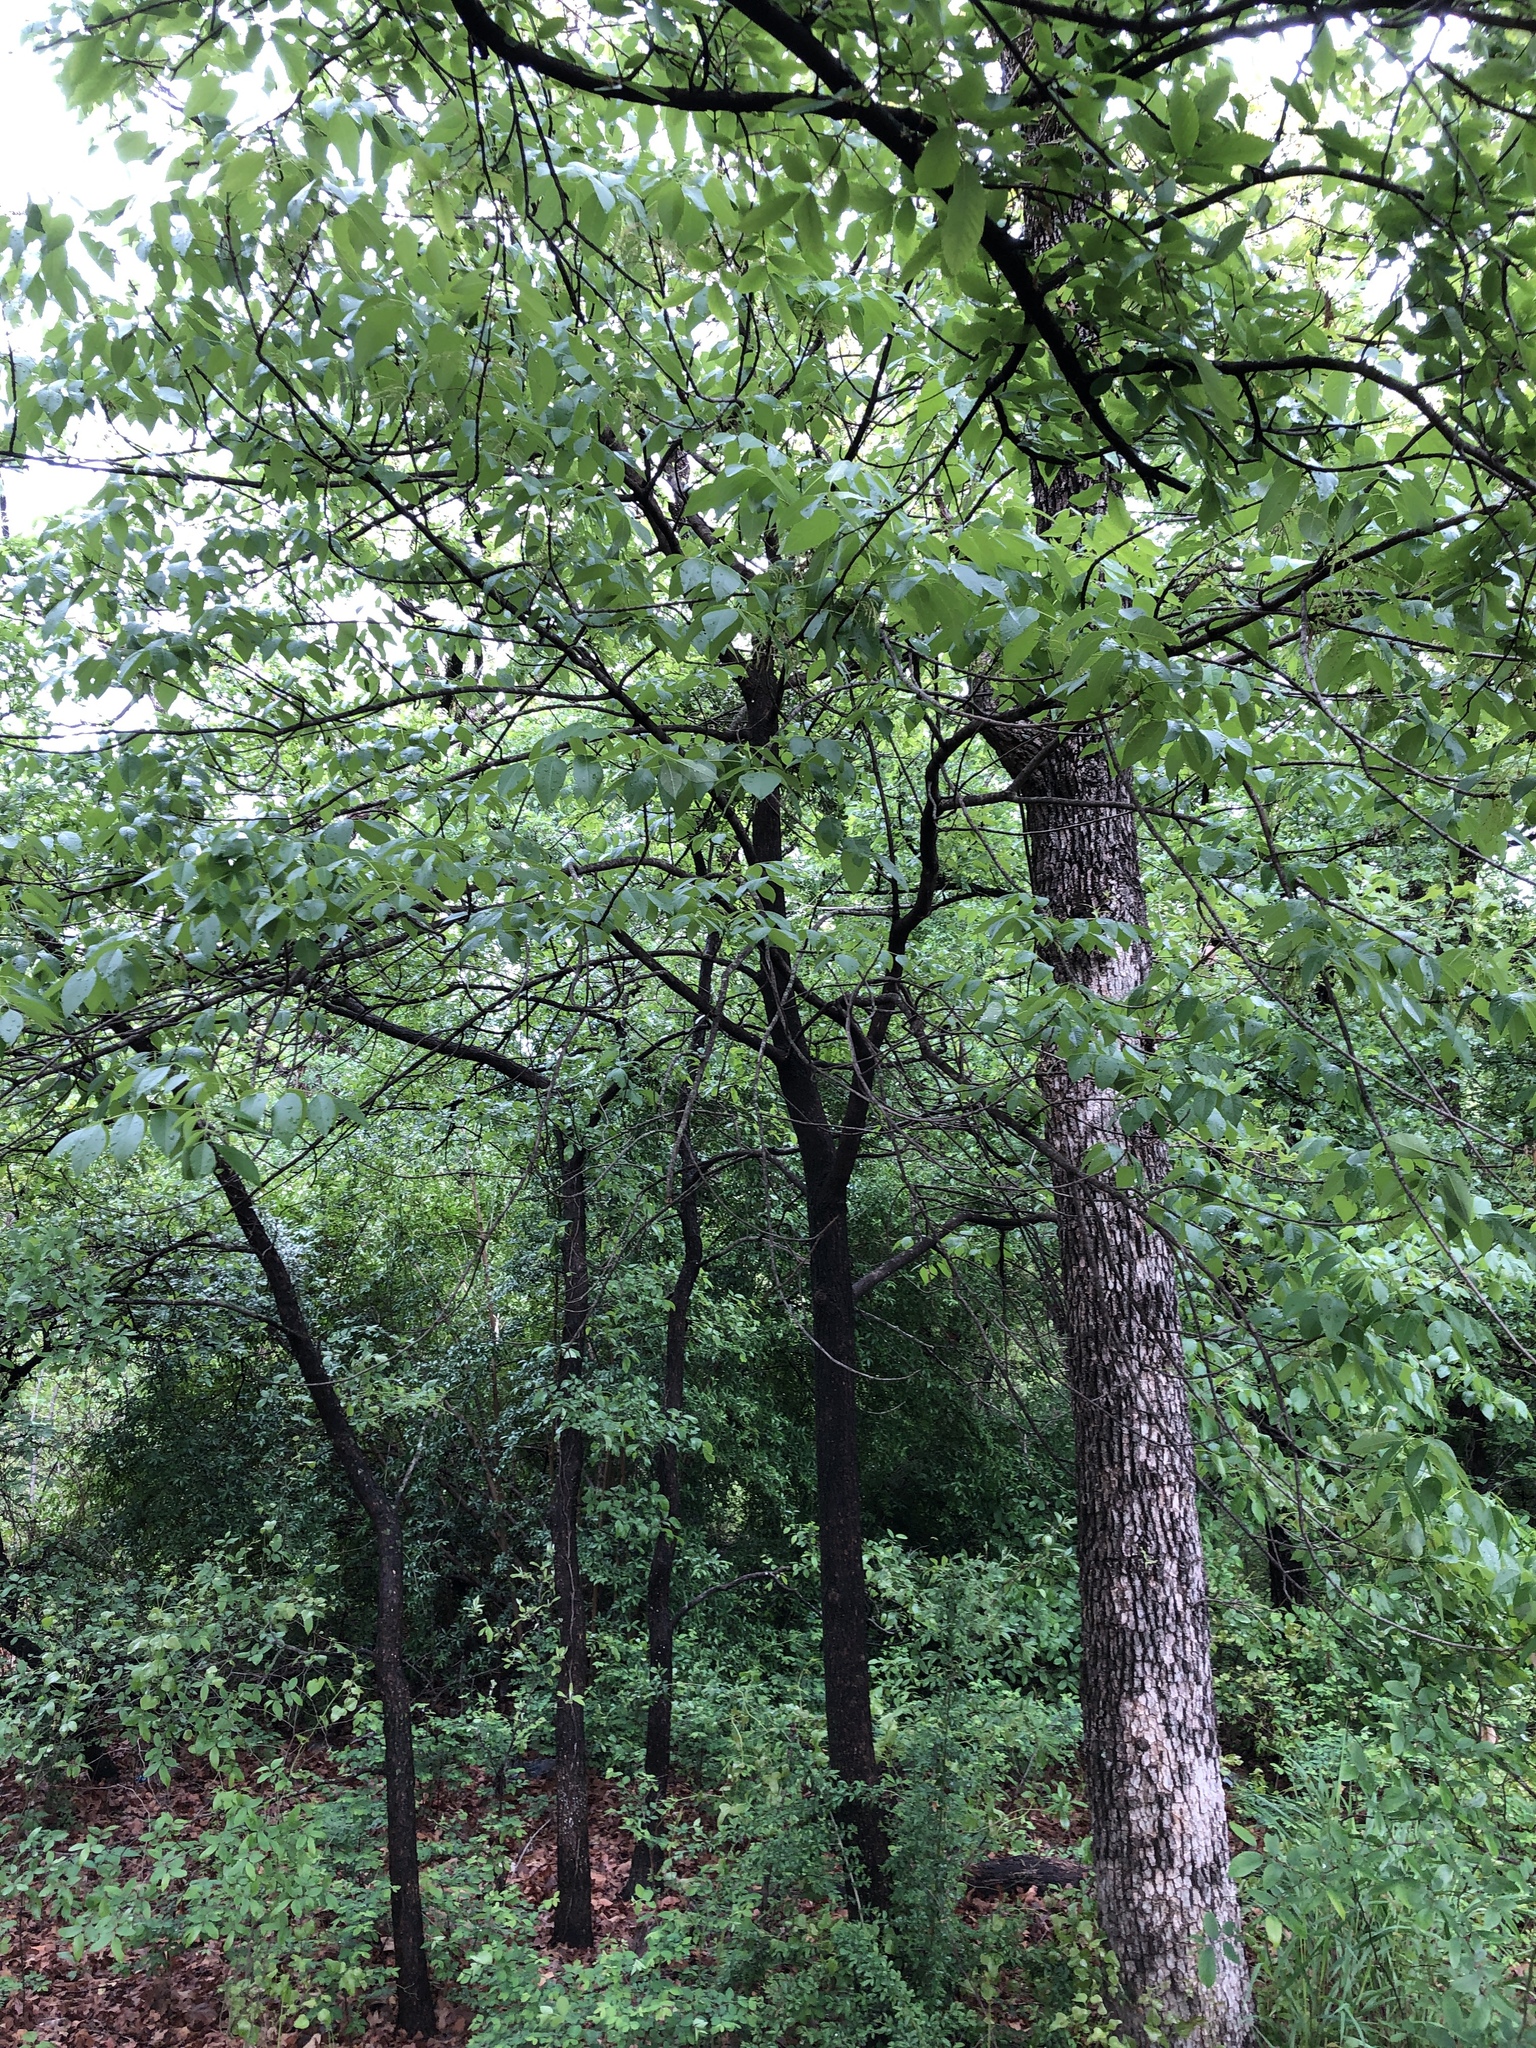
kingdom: Plantae
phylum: Tracheophyta
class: Magnoliopsida
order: Lamiales
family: Oleaceae
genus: Fraxinus
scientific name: Fraxinus pennsylvanica
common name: Green ash
